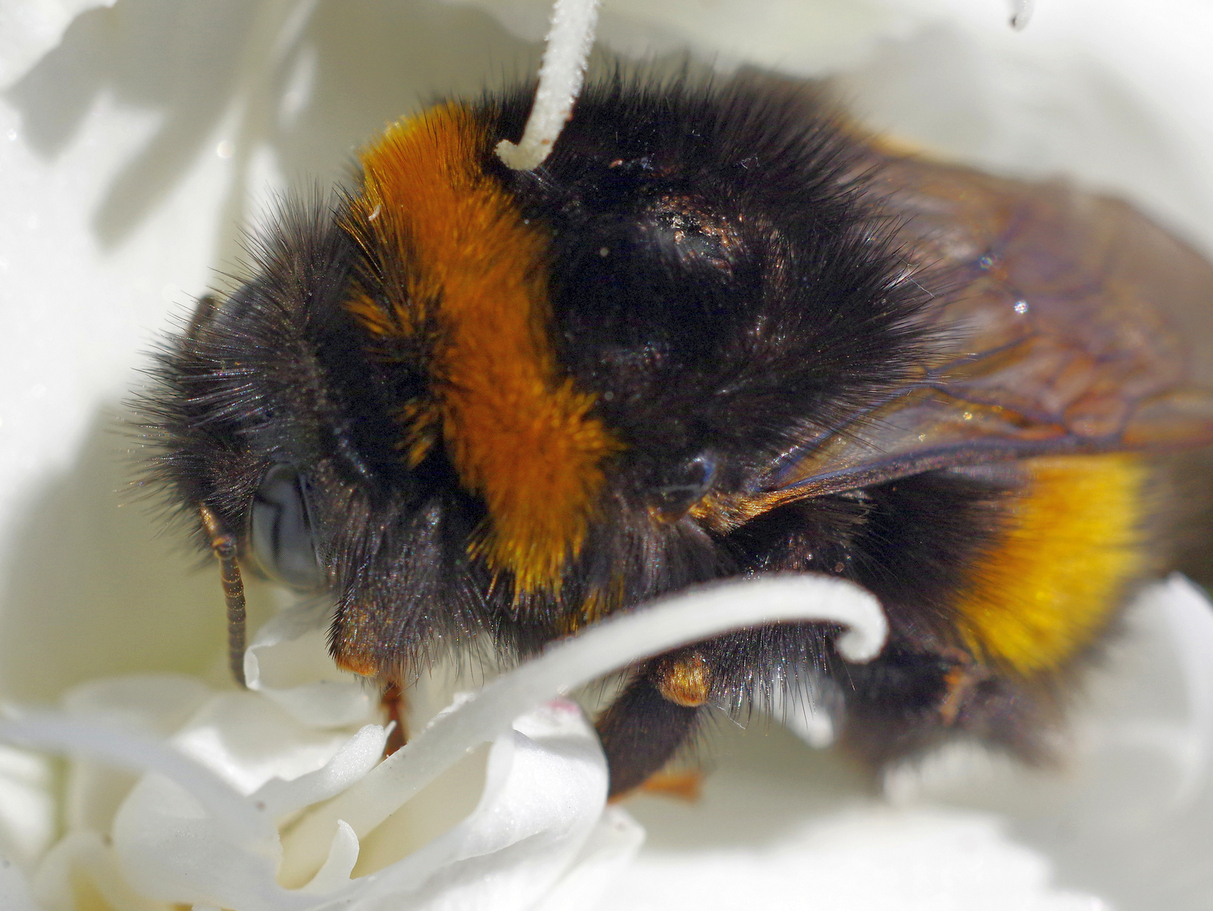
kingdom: Animalia
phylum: Arthropoda
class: Insecta
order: Hymenoptera
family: Apidae
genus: Bombus
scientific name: Bombus terrestris
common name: Buff-tailed bumblebee
